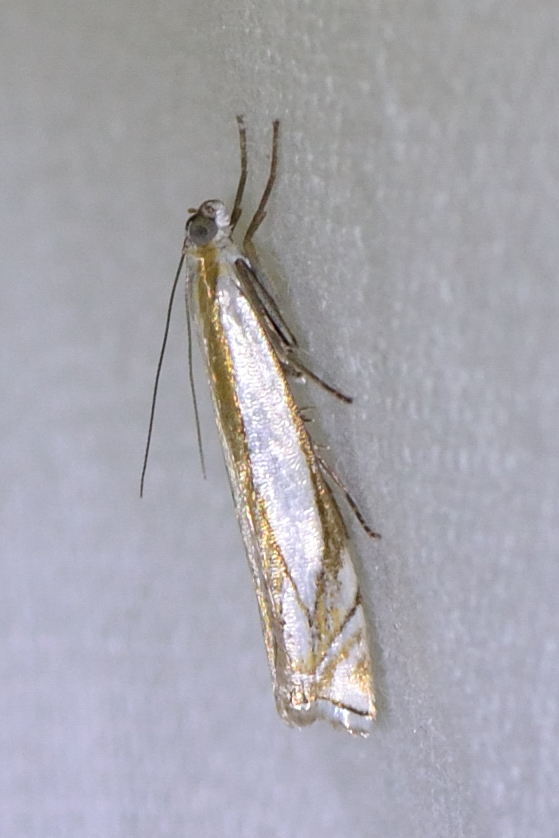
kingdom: Animalia
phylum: Arthropoda
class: Insecta
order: Lepidoptera
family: Crambidae
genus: Crambus
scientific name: Crambus pascuella
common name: Inlaid grass-veneer
